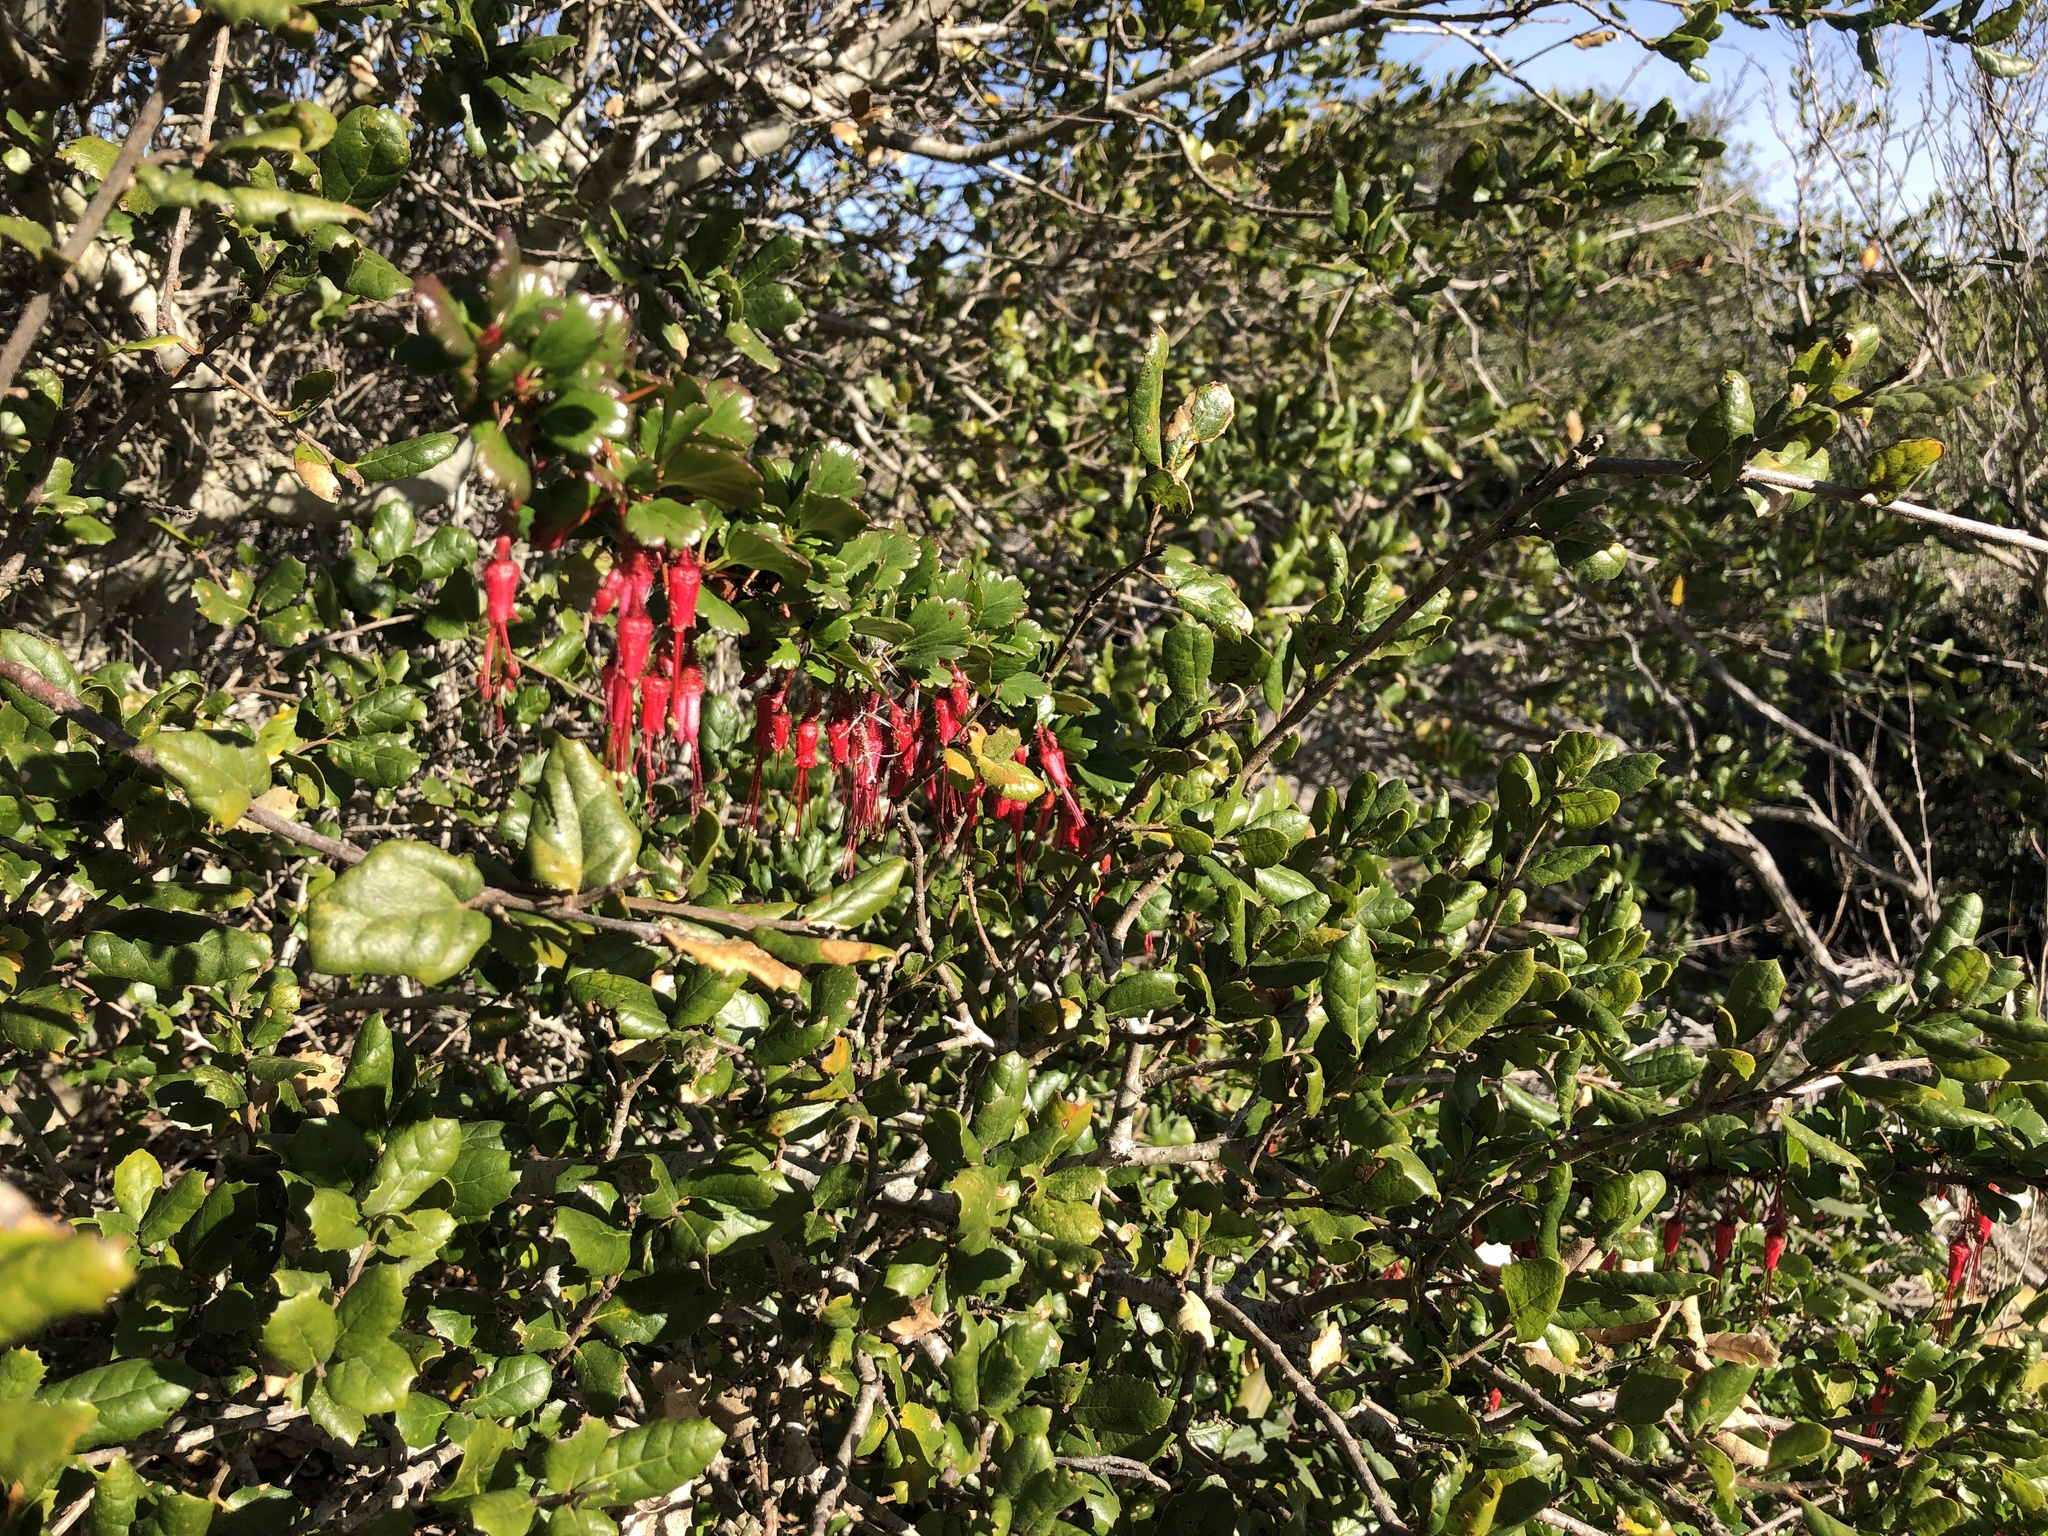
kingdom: Plantae
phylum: Tracheophyta
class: Magnoliopsida
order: Saxifragales
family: Grossulariaceae
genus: Ribes
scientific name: Ribes speciosum
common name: Fuchsia-flower gooseberry
